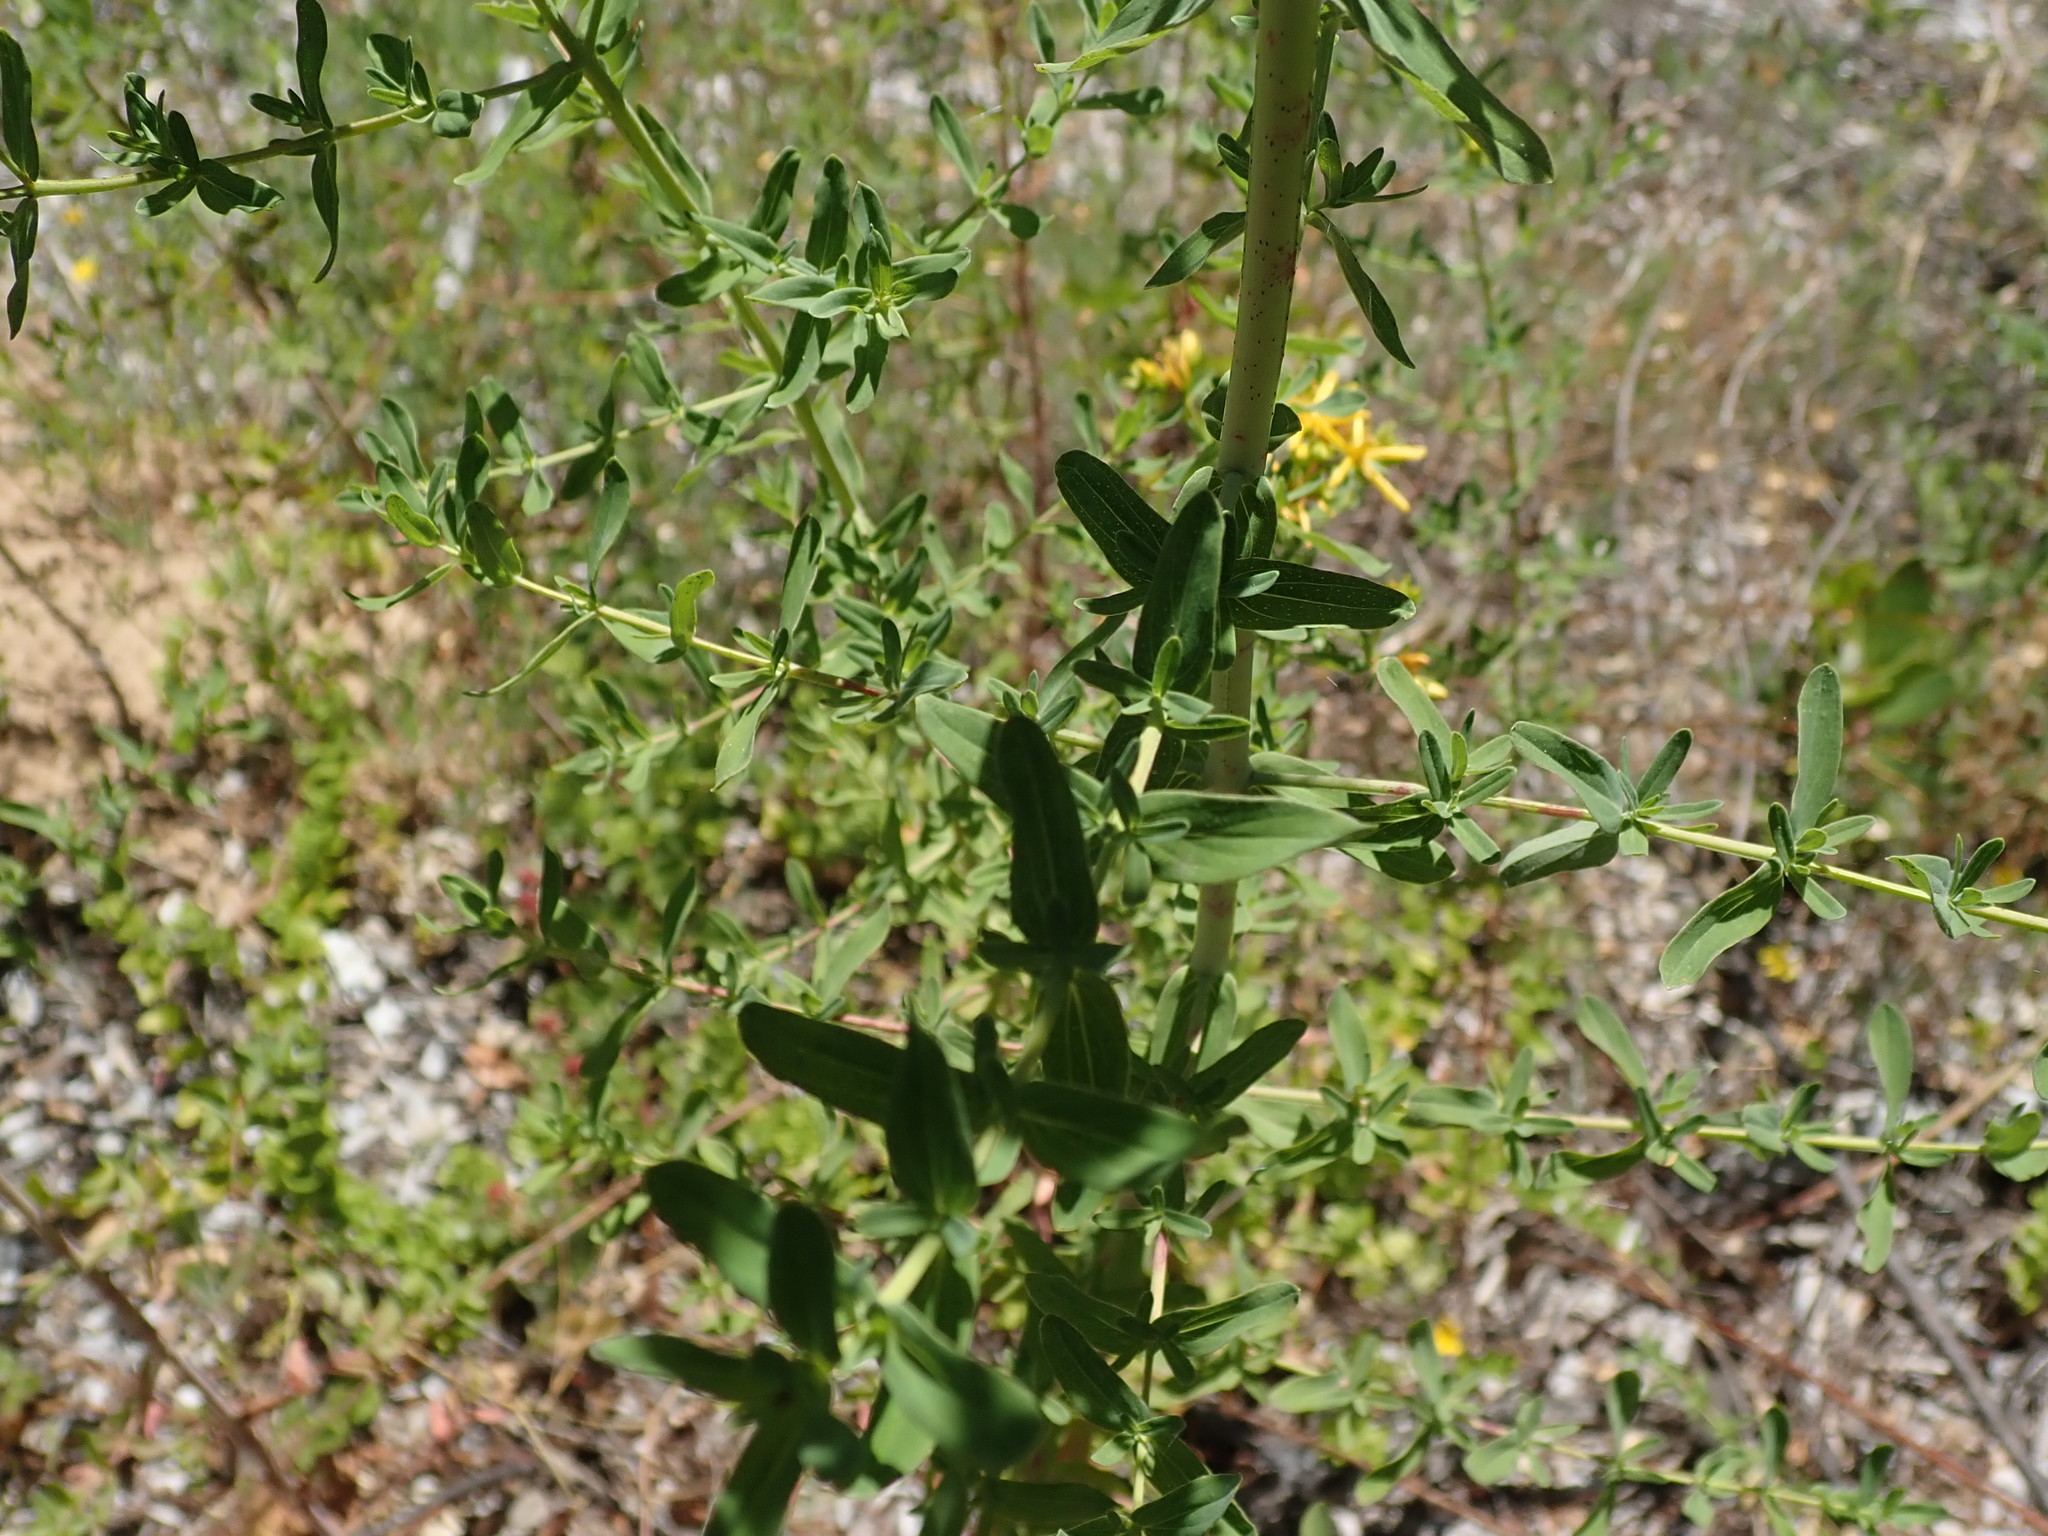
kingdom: Plantae
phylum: Tracheophyta
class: Magnoliopsida
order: Malpighiales
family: Hypericaceae
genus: Hypericum
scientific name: Hypericum perforatum
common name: Common st. johnswort
